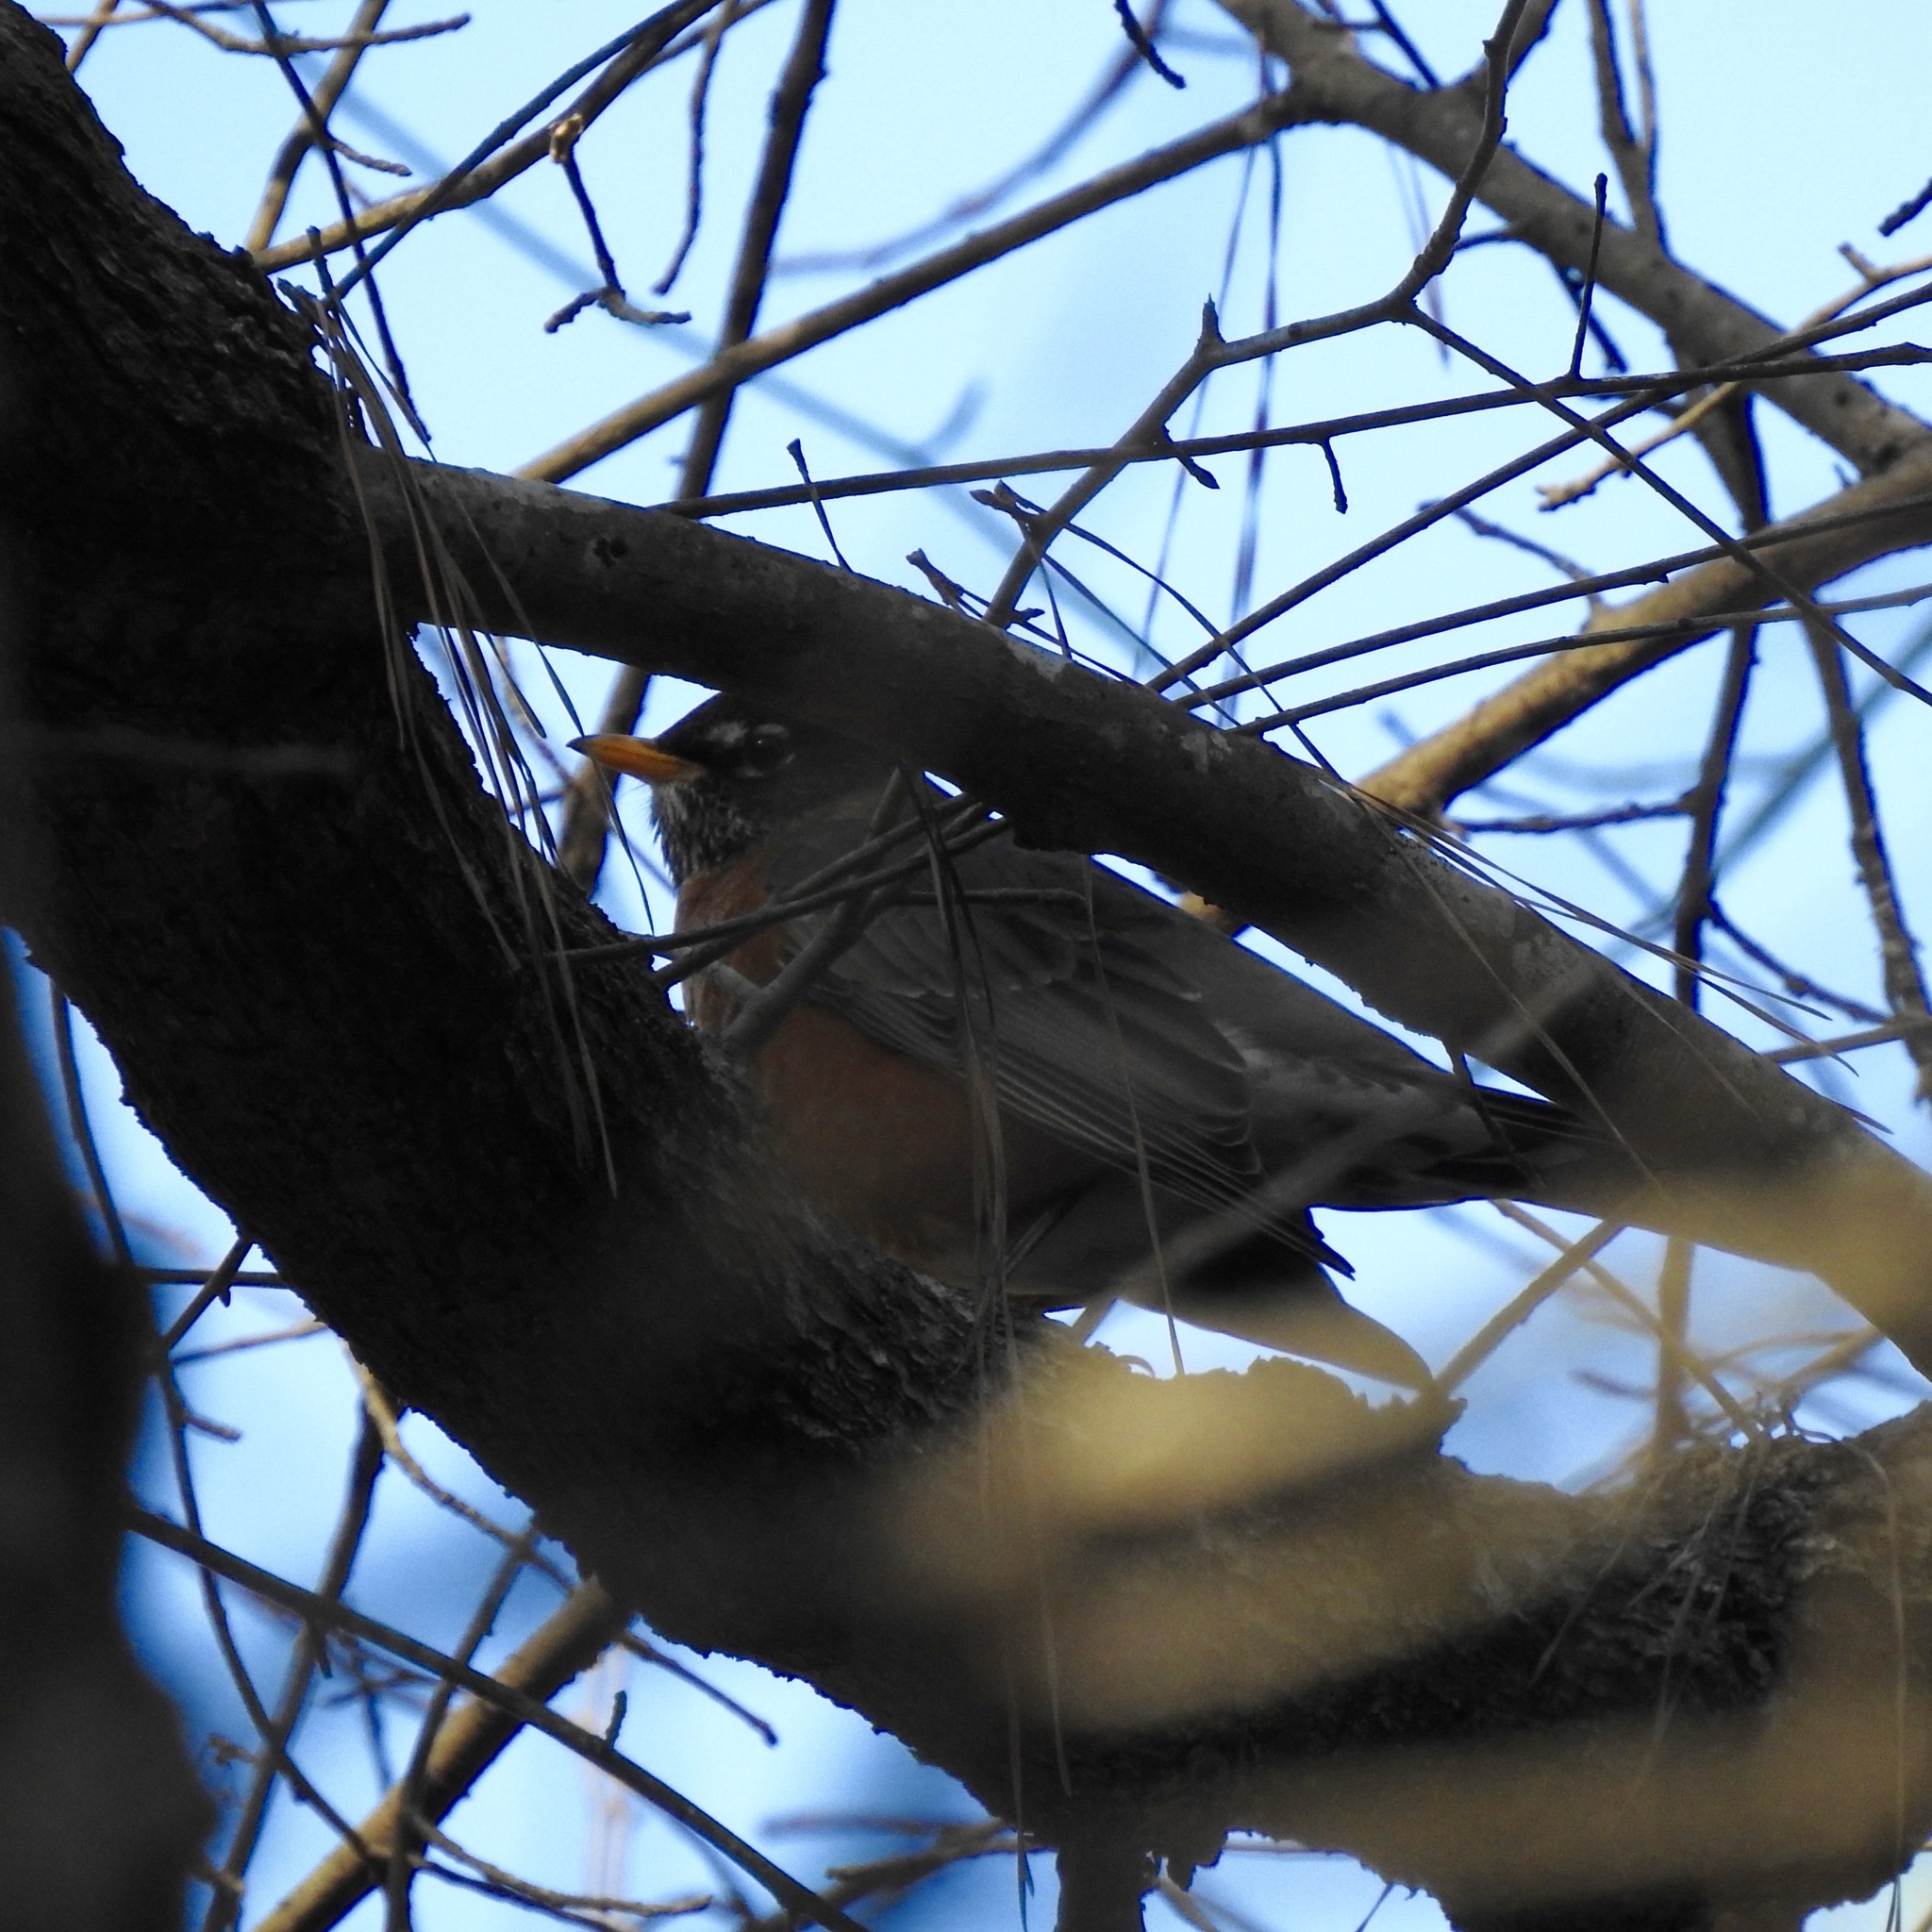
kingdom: Animalia
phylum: Chordata
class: Aves
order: Passeriformes
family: Turdidae
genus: Turdus
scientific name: Turdus migratorius
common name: American robin
